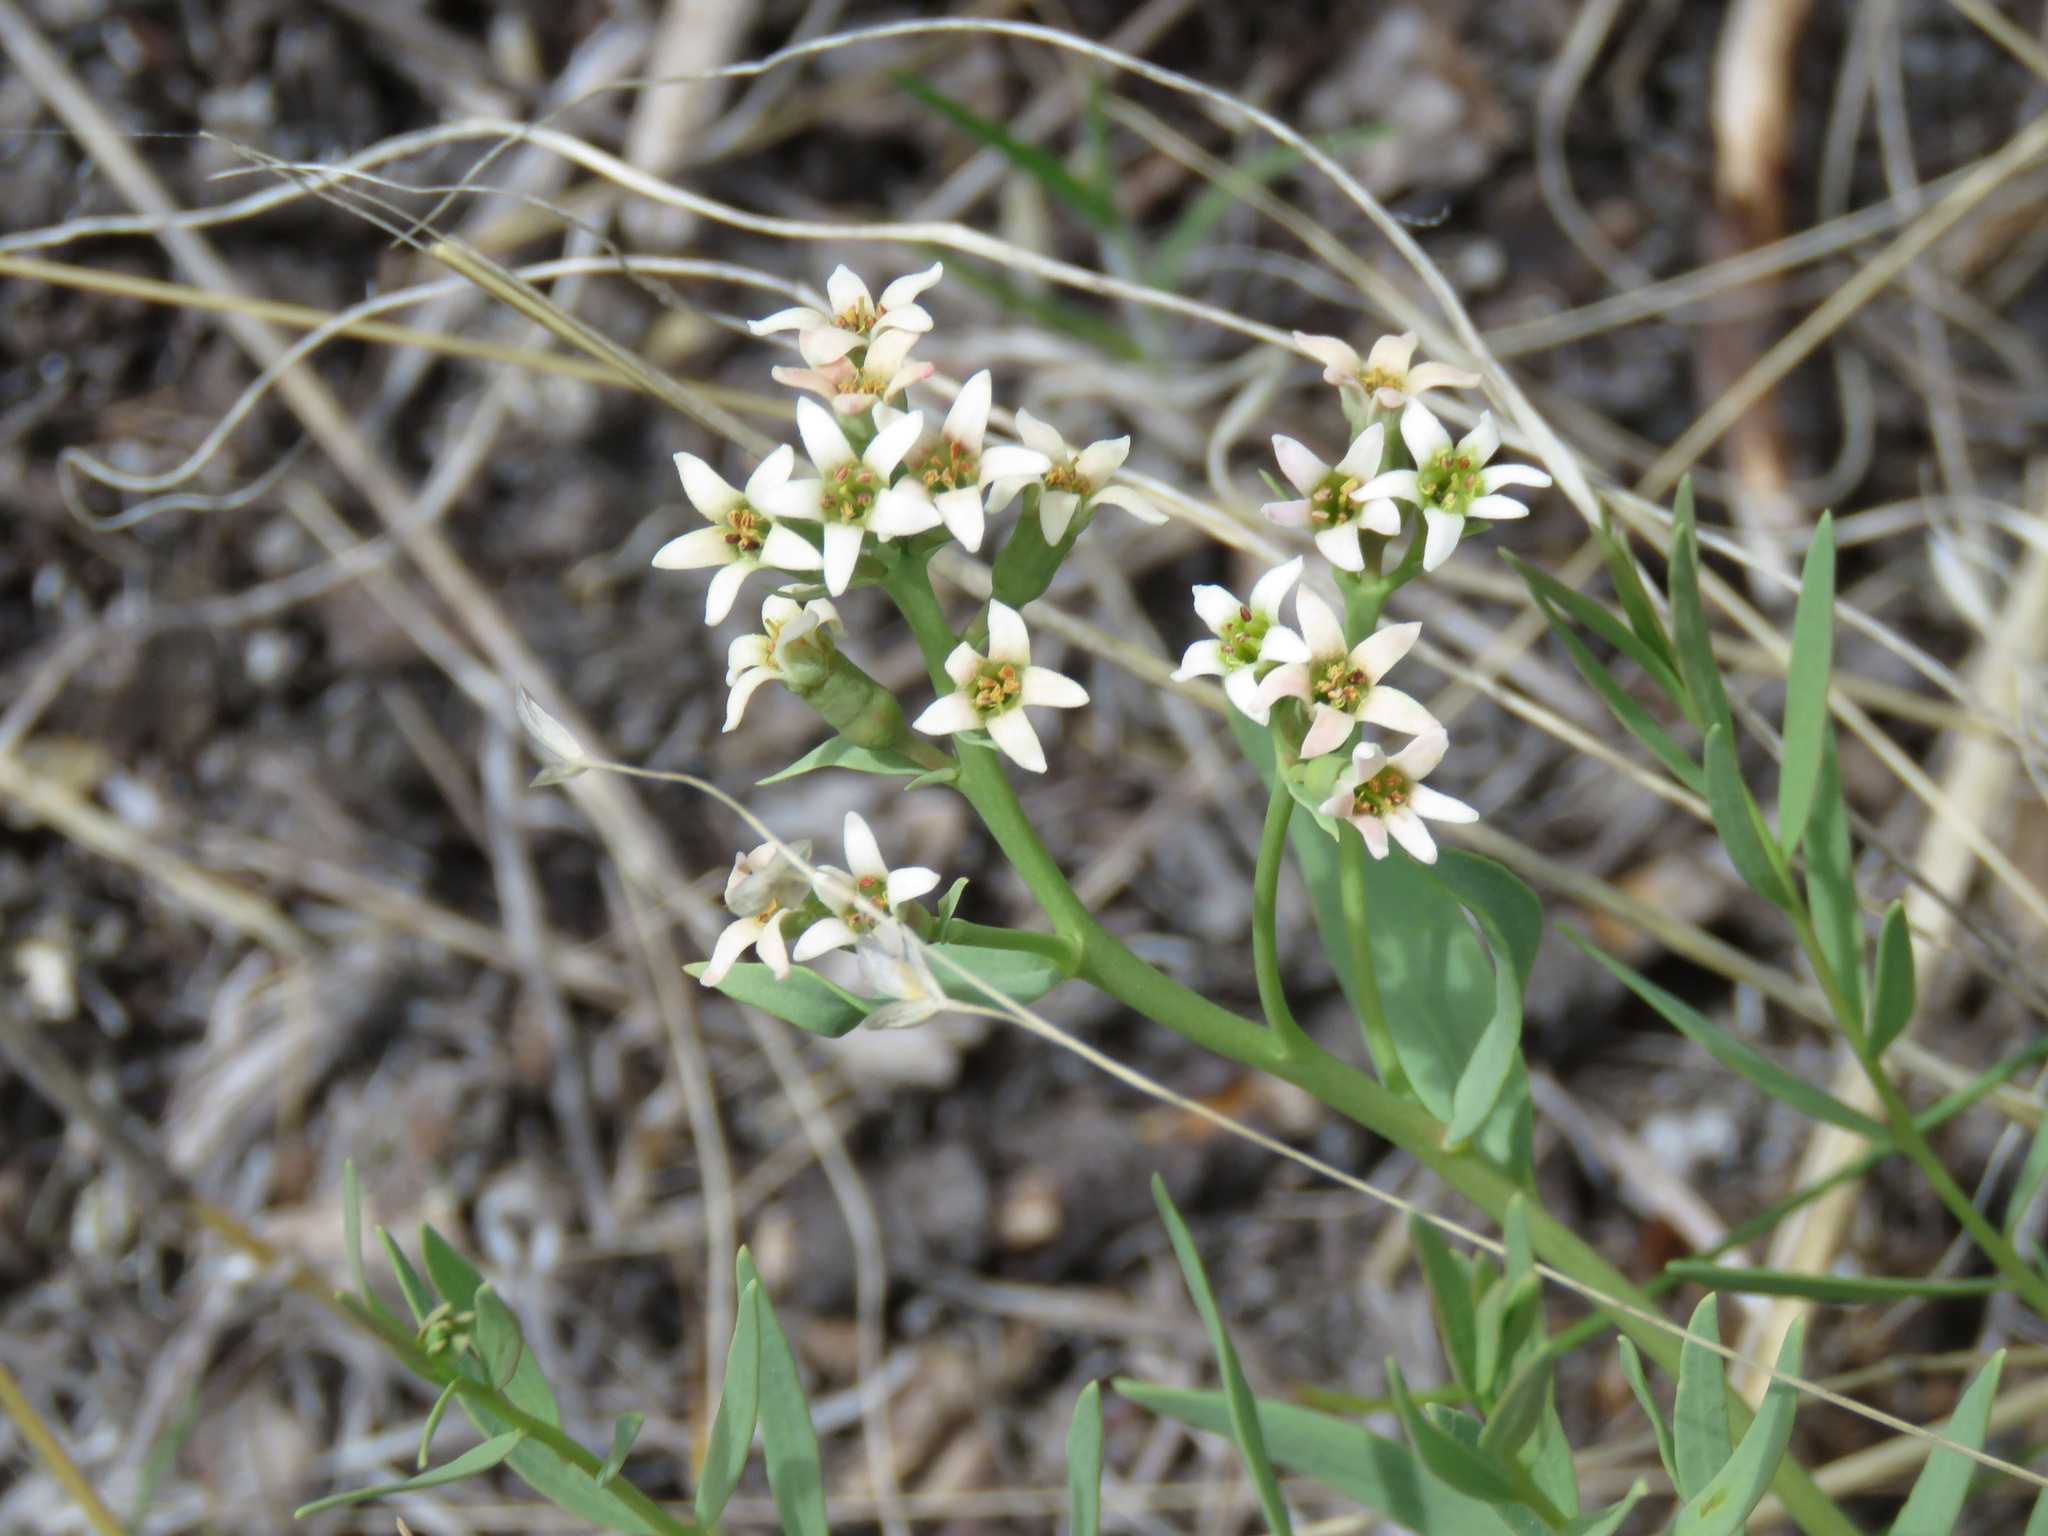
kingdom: Plantae
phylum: Tracheophyta
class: Magnoliopsida
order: Santalales
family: Comandraceae
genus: Comandra
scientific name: Comandra umbellata
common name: Bastard toadflax
